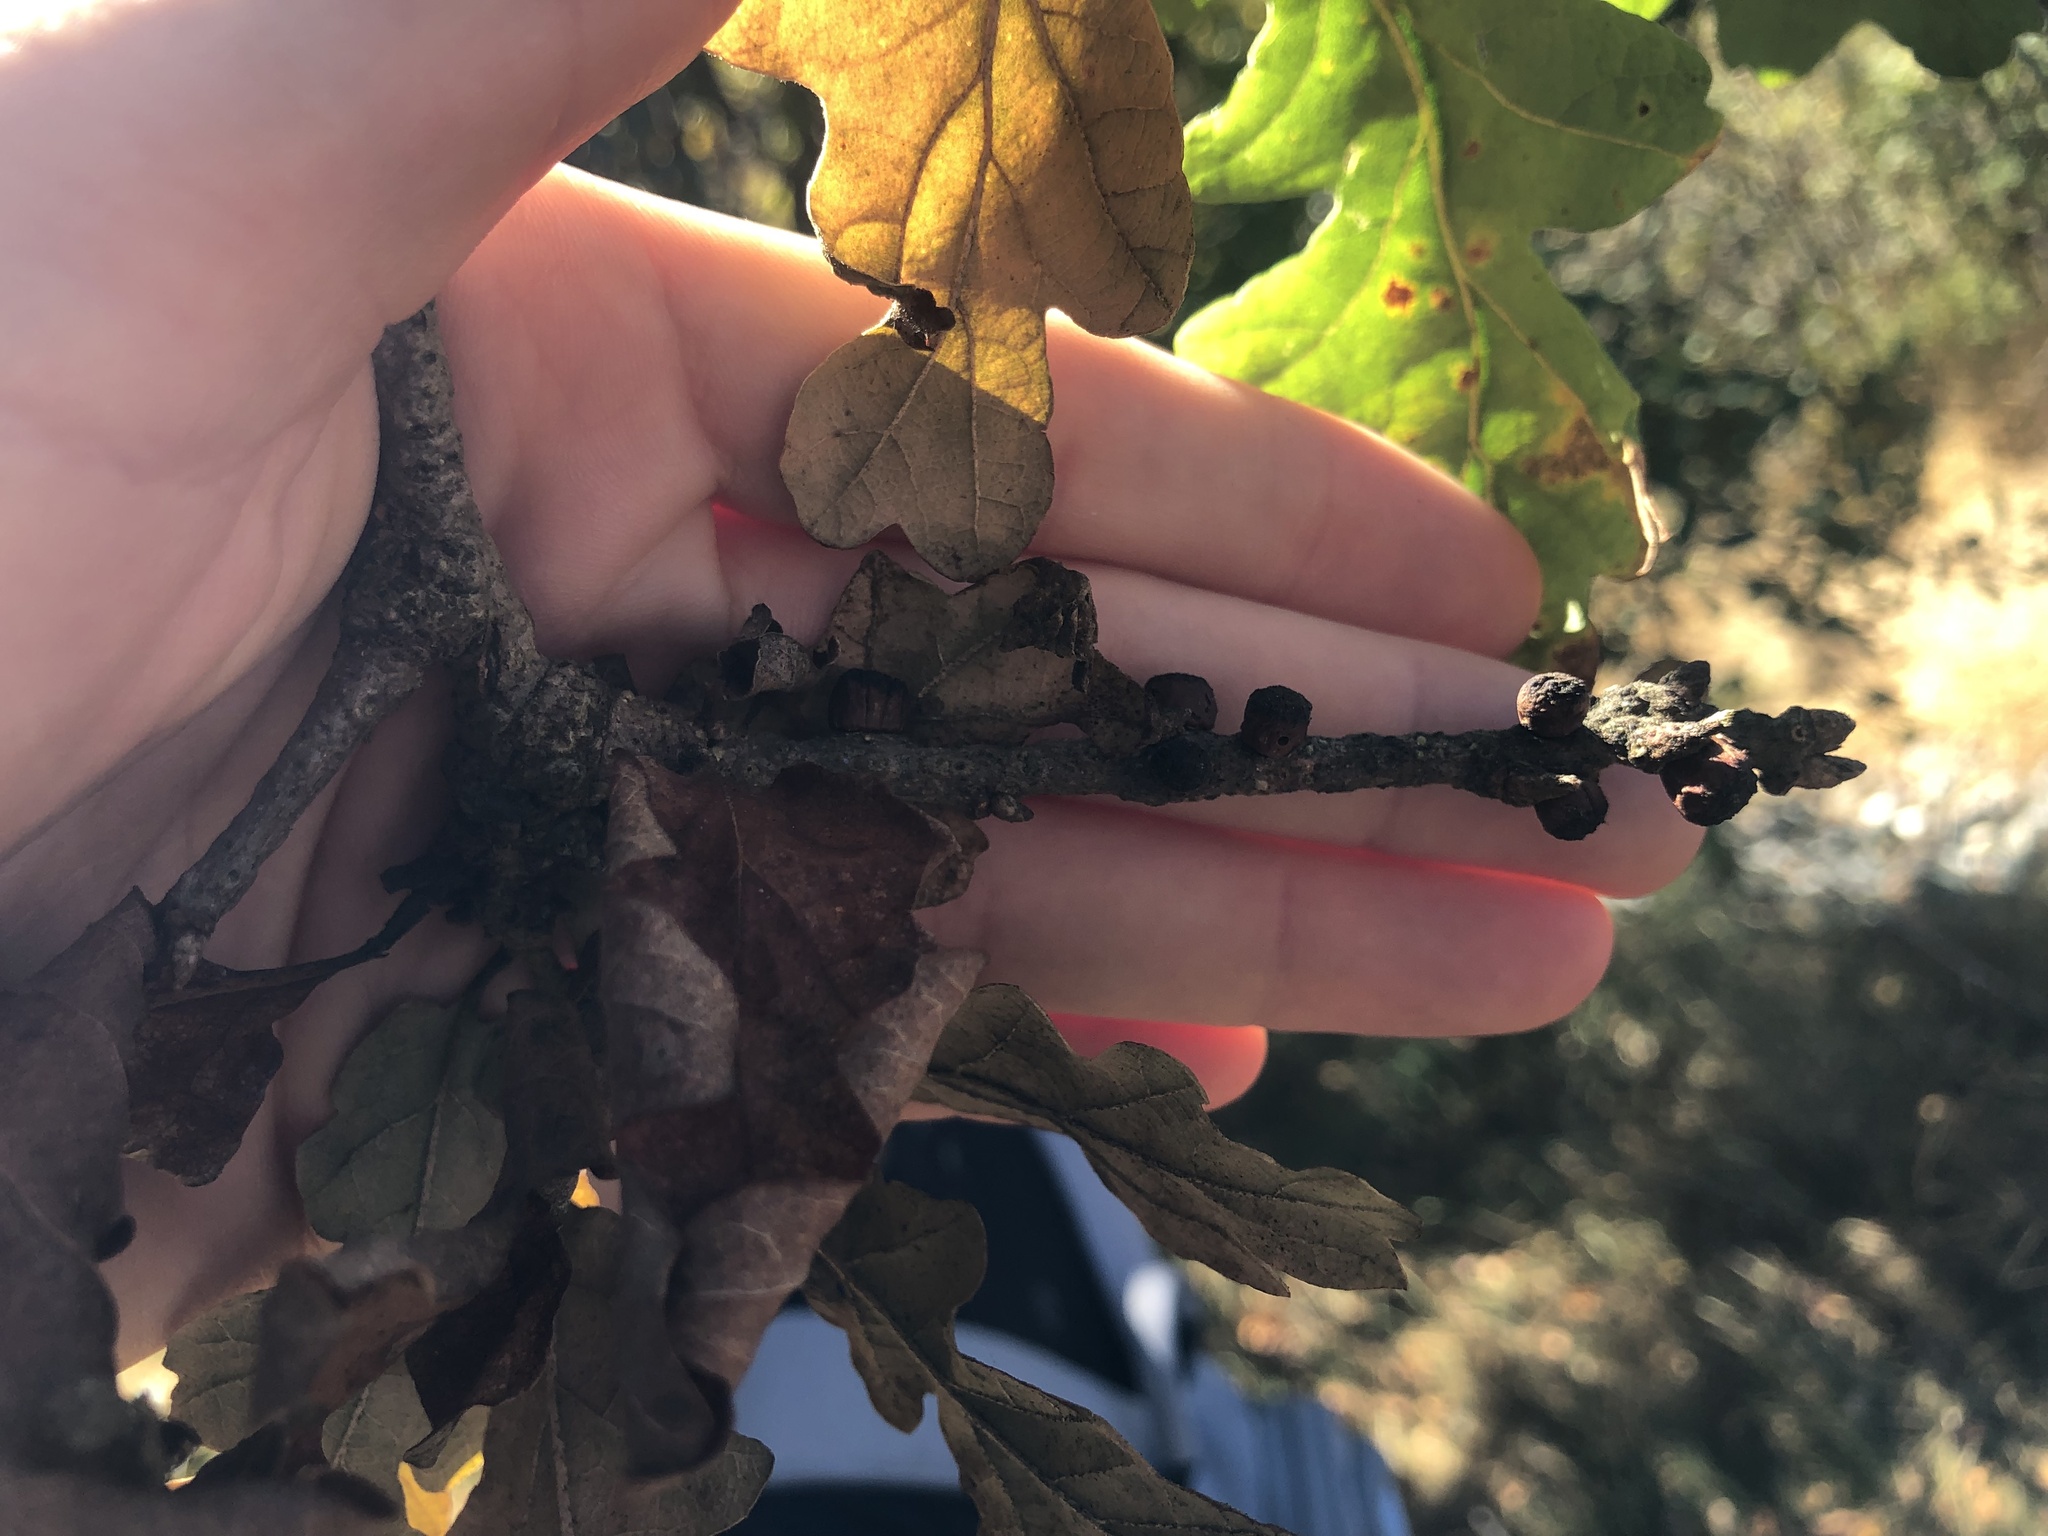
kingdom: Animalia
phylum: Arthropoda
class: Insecta
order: Hymenoptera
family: Cynipidae
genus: Disholcaspis
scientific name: Disholcaspis
